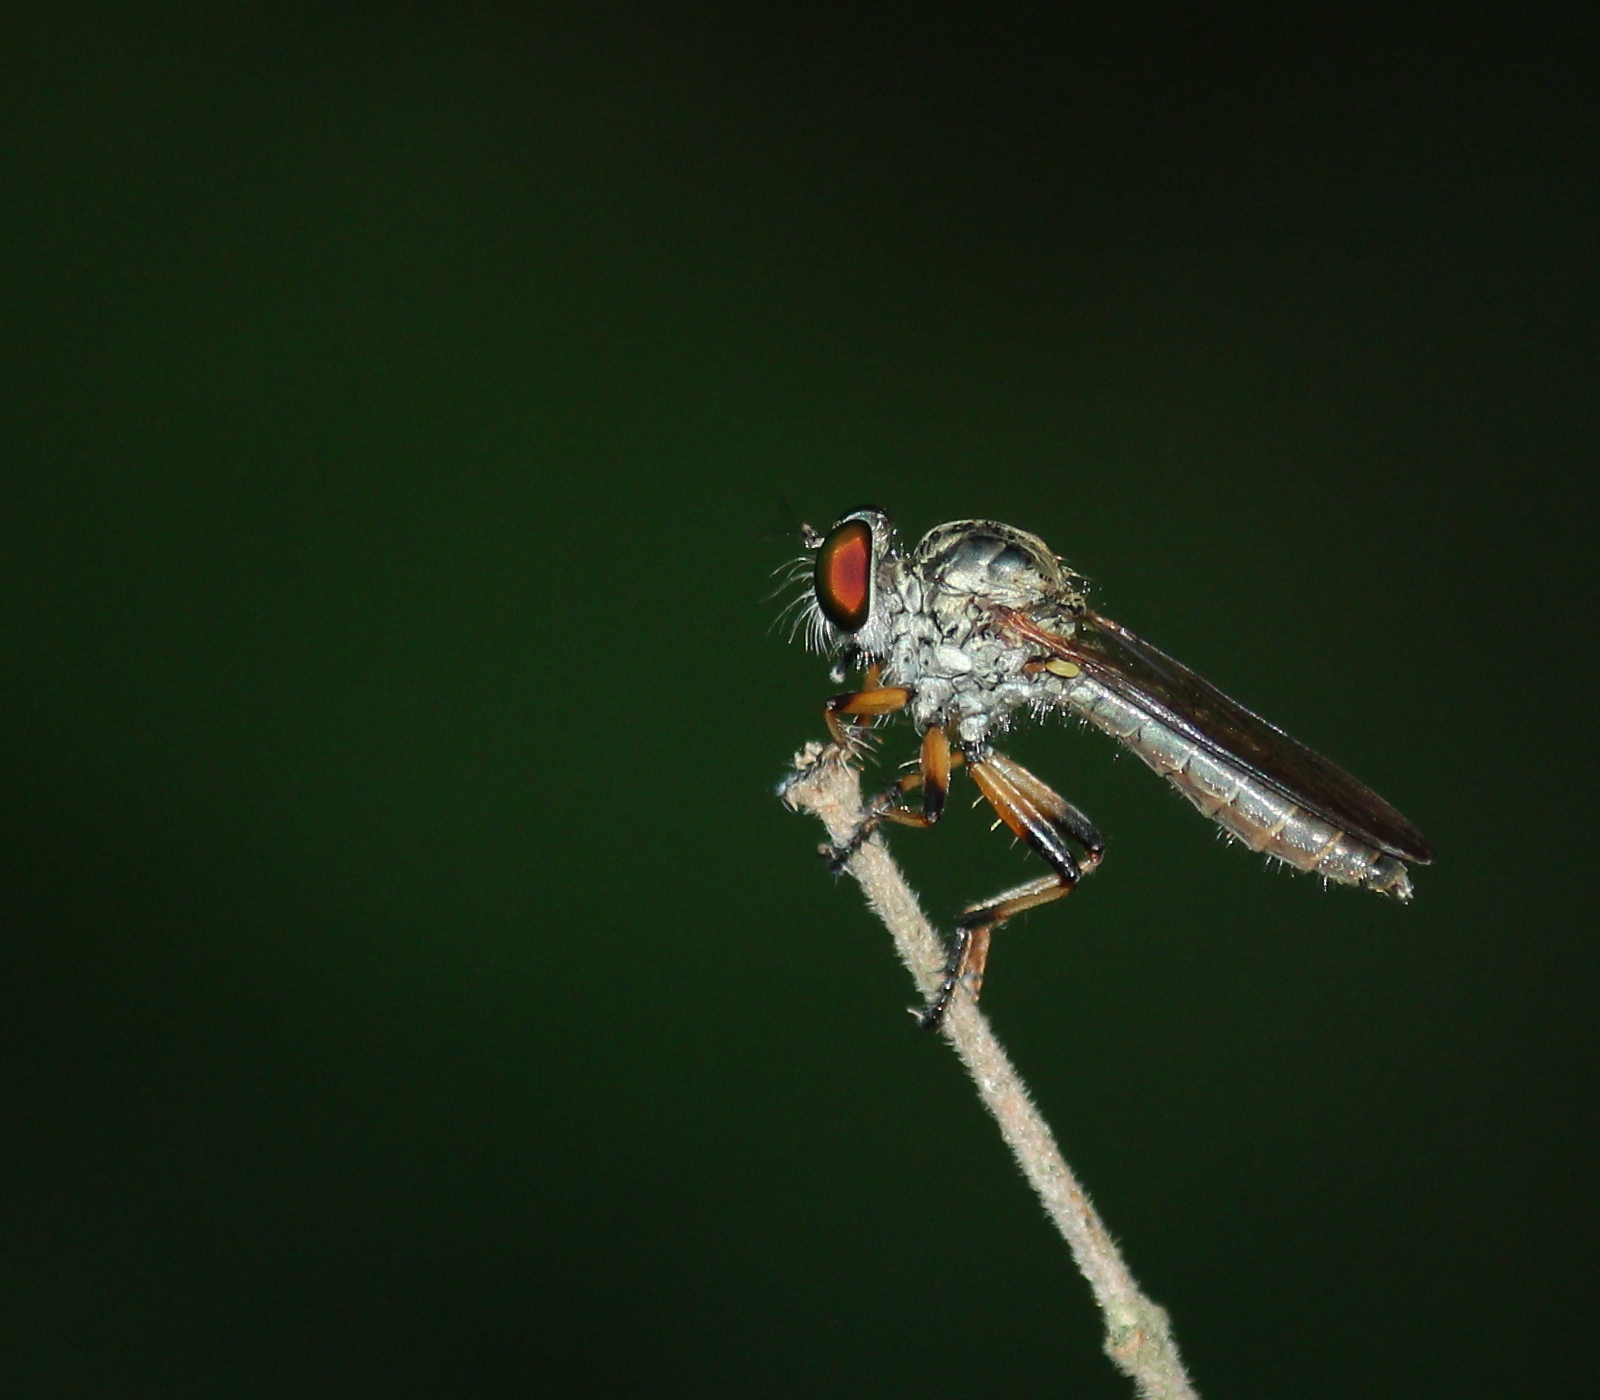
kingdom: Animalia
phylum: Arthropoda
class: Insecta
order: Diptera
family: Asilidae
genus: Ommatius
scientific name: Ommatius ouachitensis
